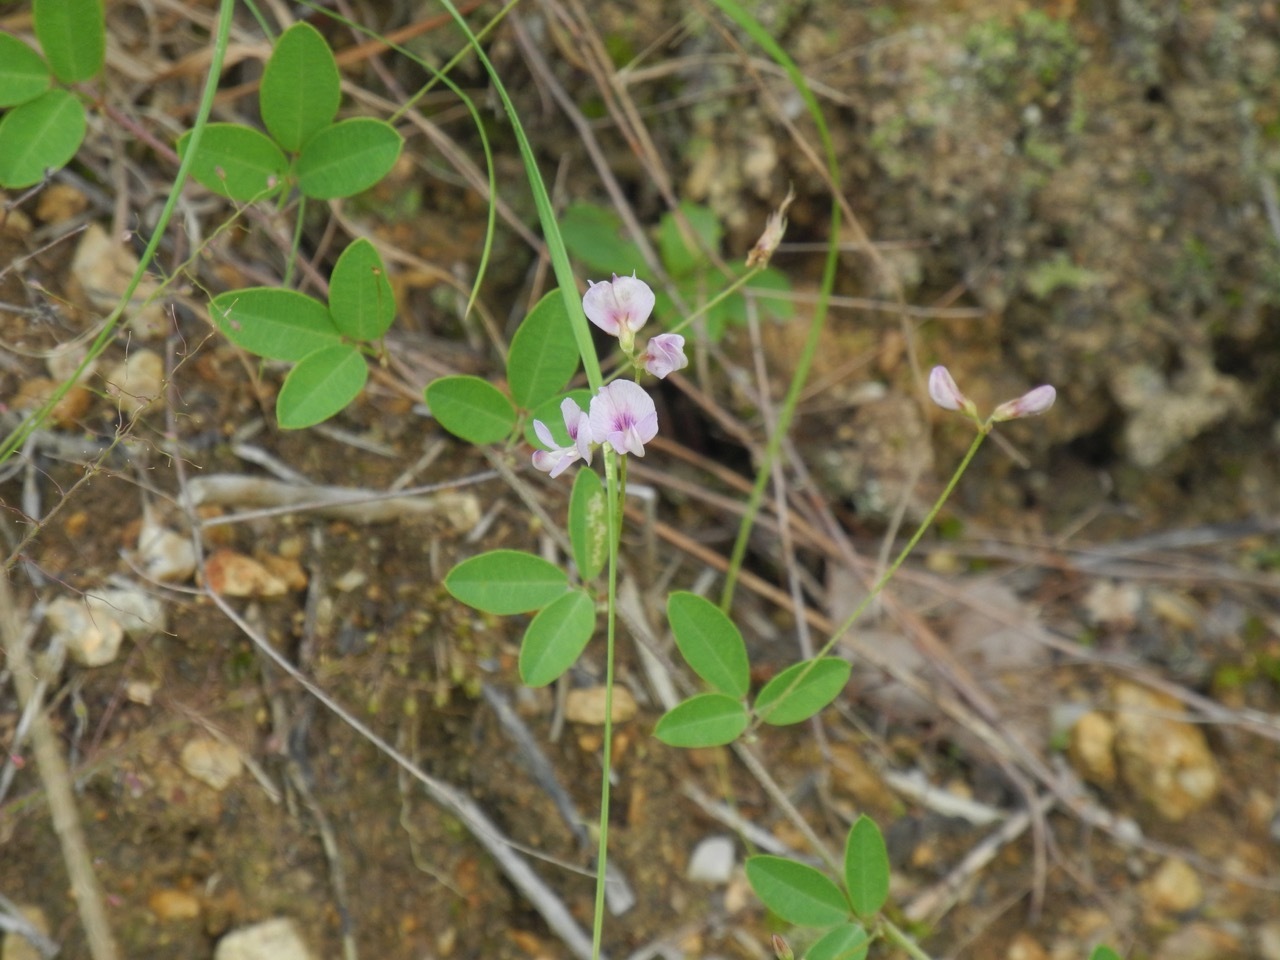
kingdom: Plantae
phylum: Tracheophyta
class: Magnoliopsida
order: Fabales
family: Fabaceae
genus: Lespedeza
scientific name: Lespedeza repens
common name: Creeping bush-clover
